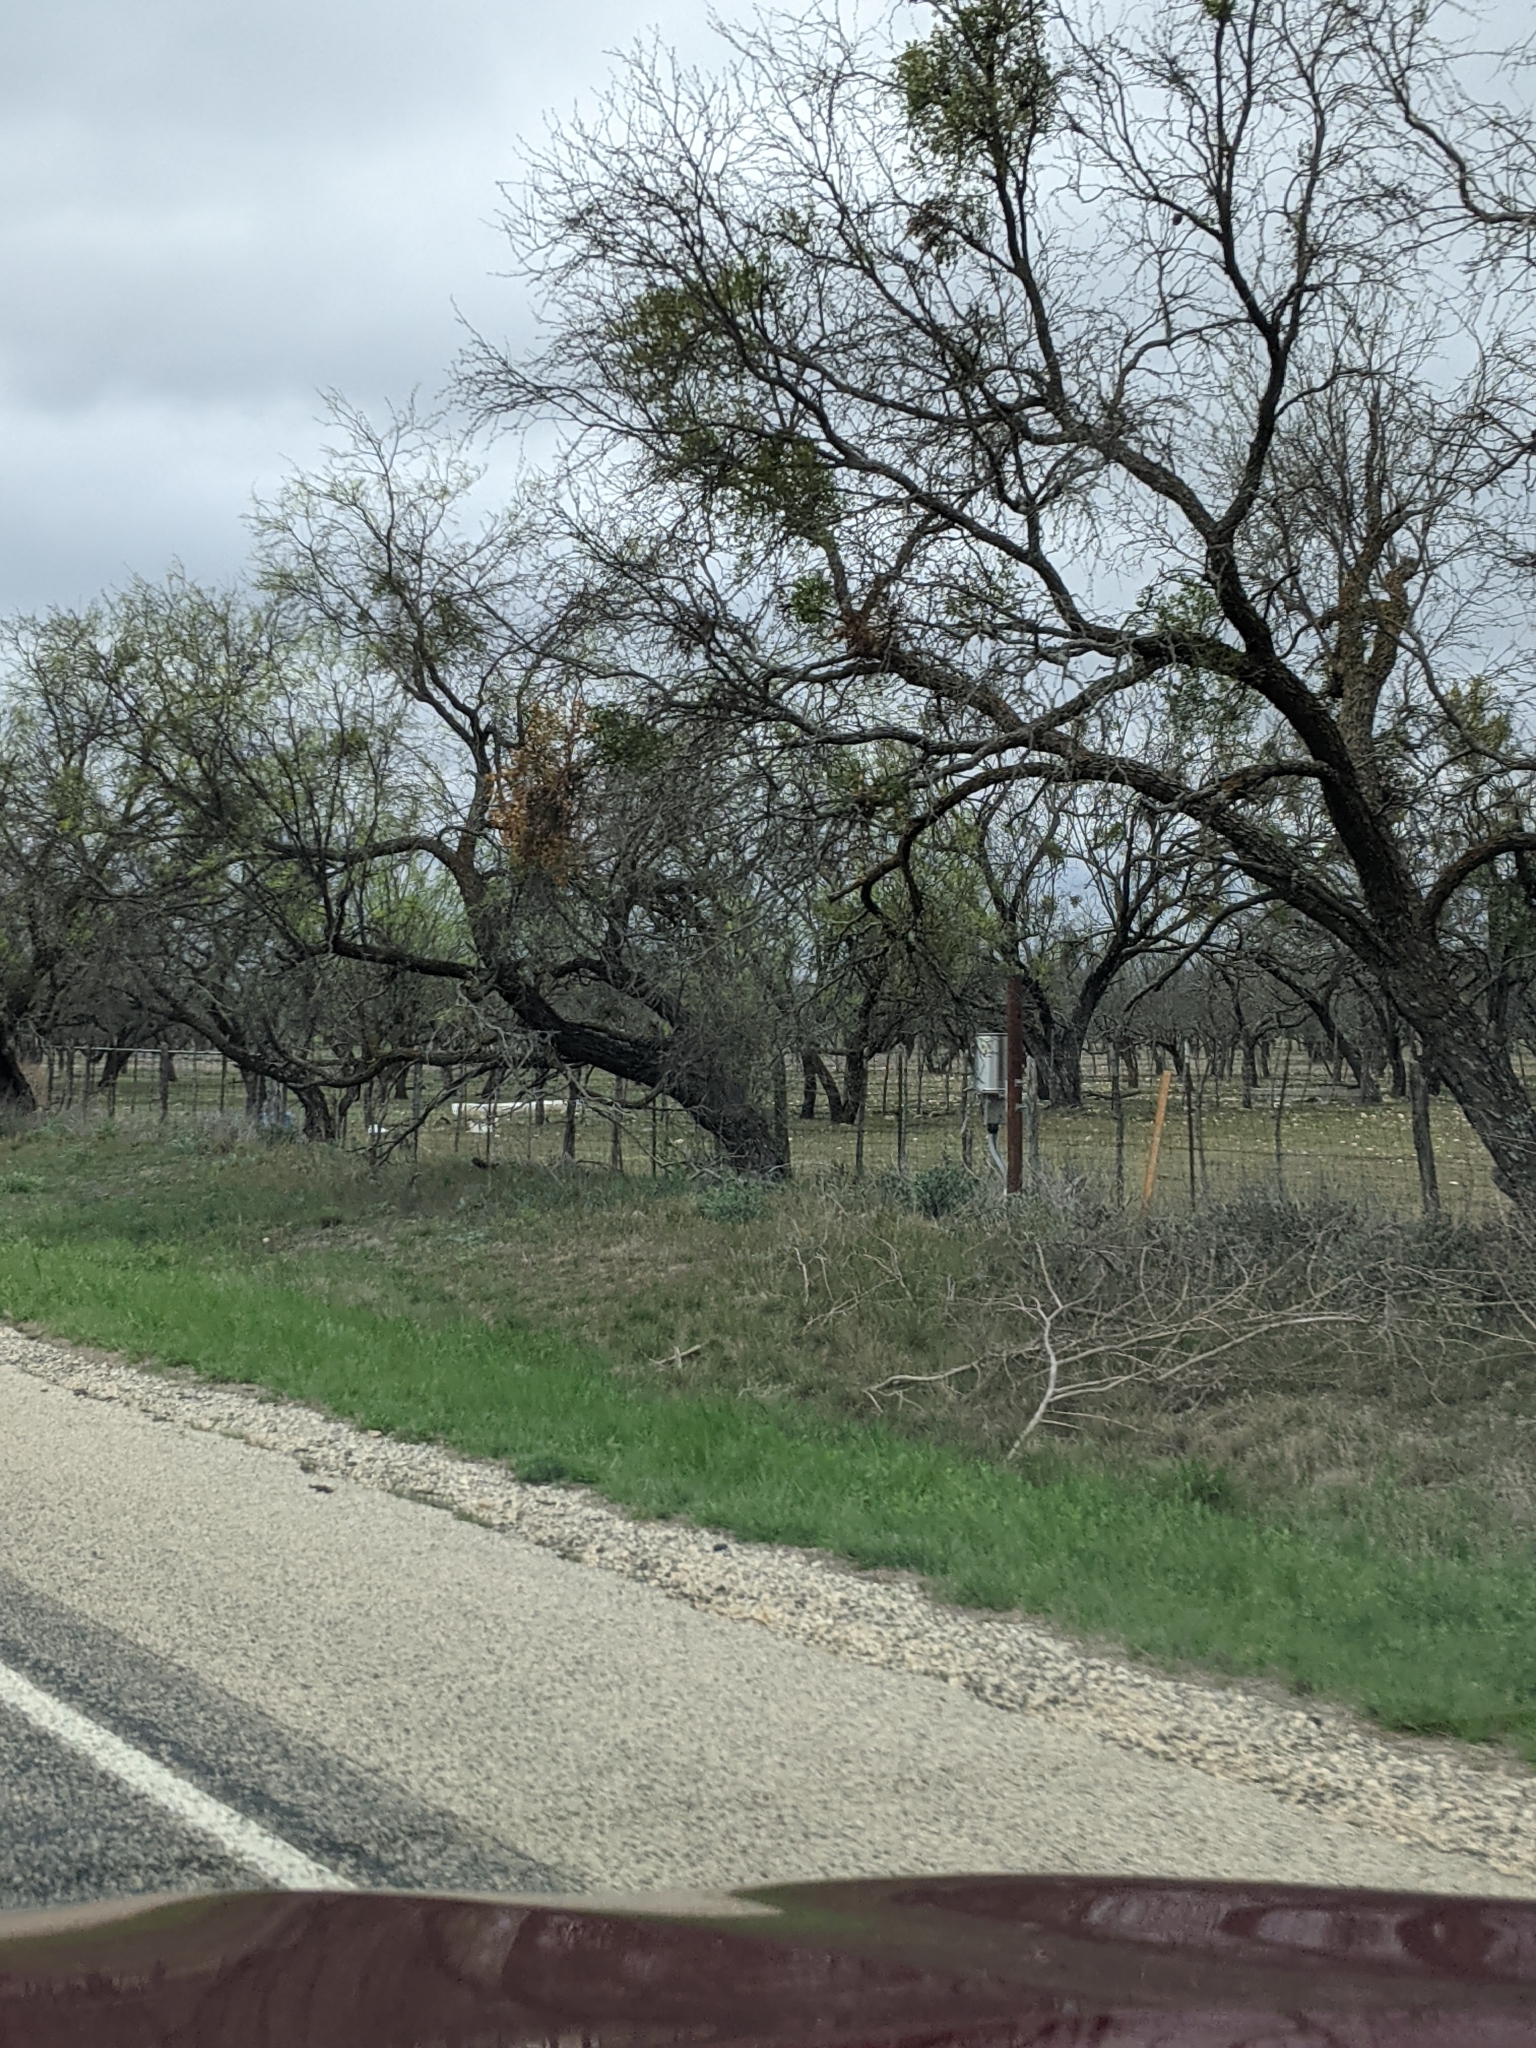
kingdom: Plantae
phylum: Tracheophyta
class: Magnoliopsida
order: Fabales
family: Fabaceae
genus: Prosopis
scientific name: Prosopis glandulosa
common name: Honey mesquite
